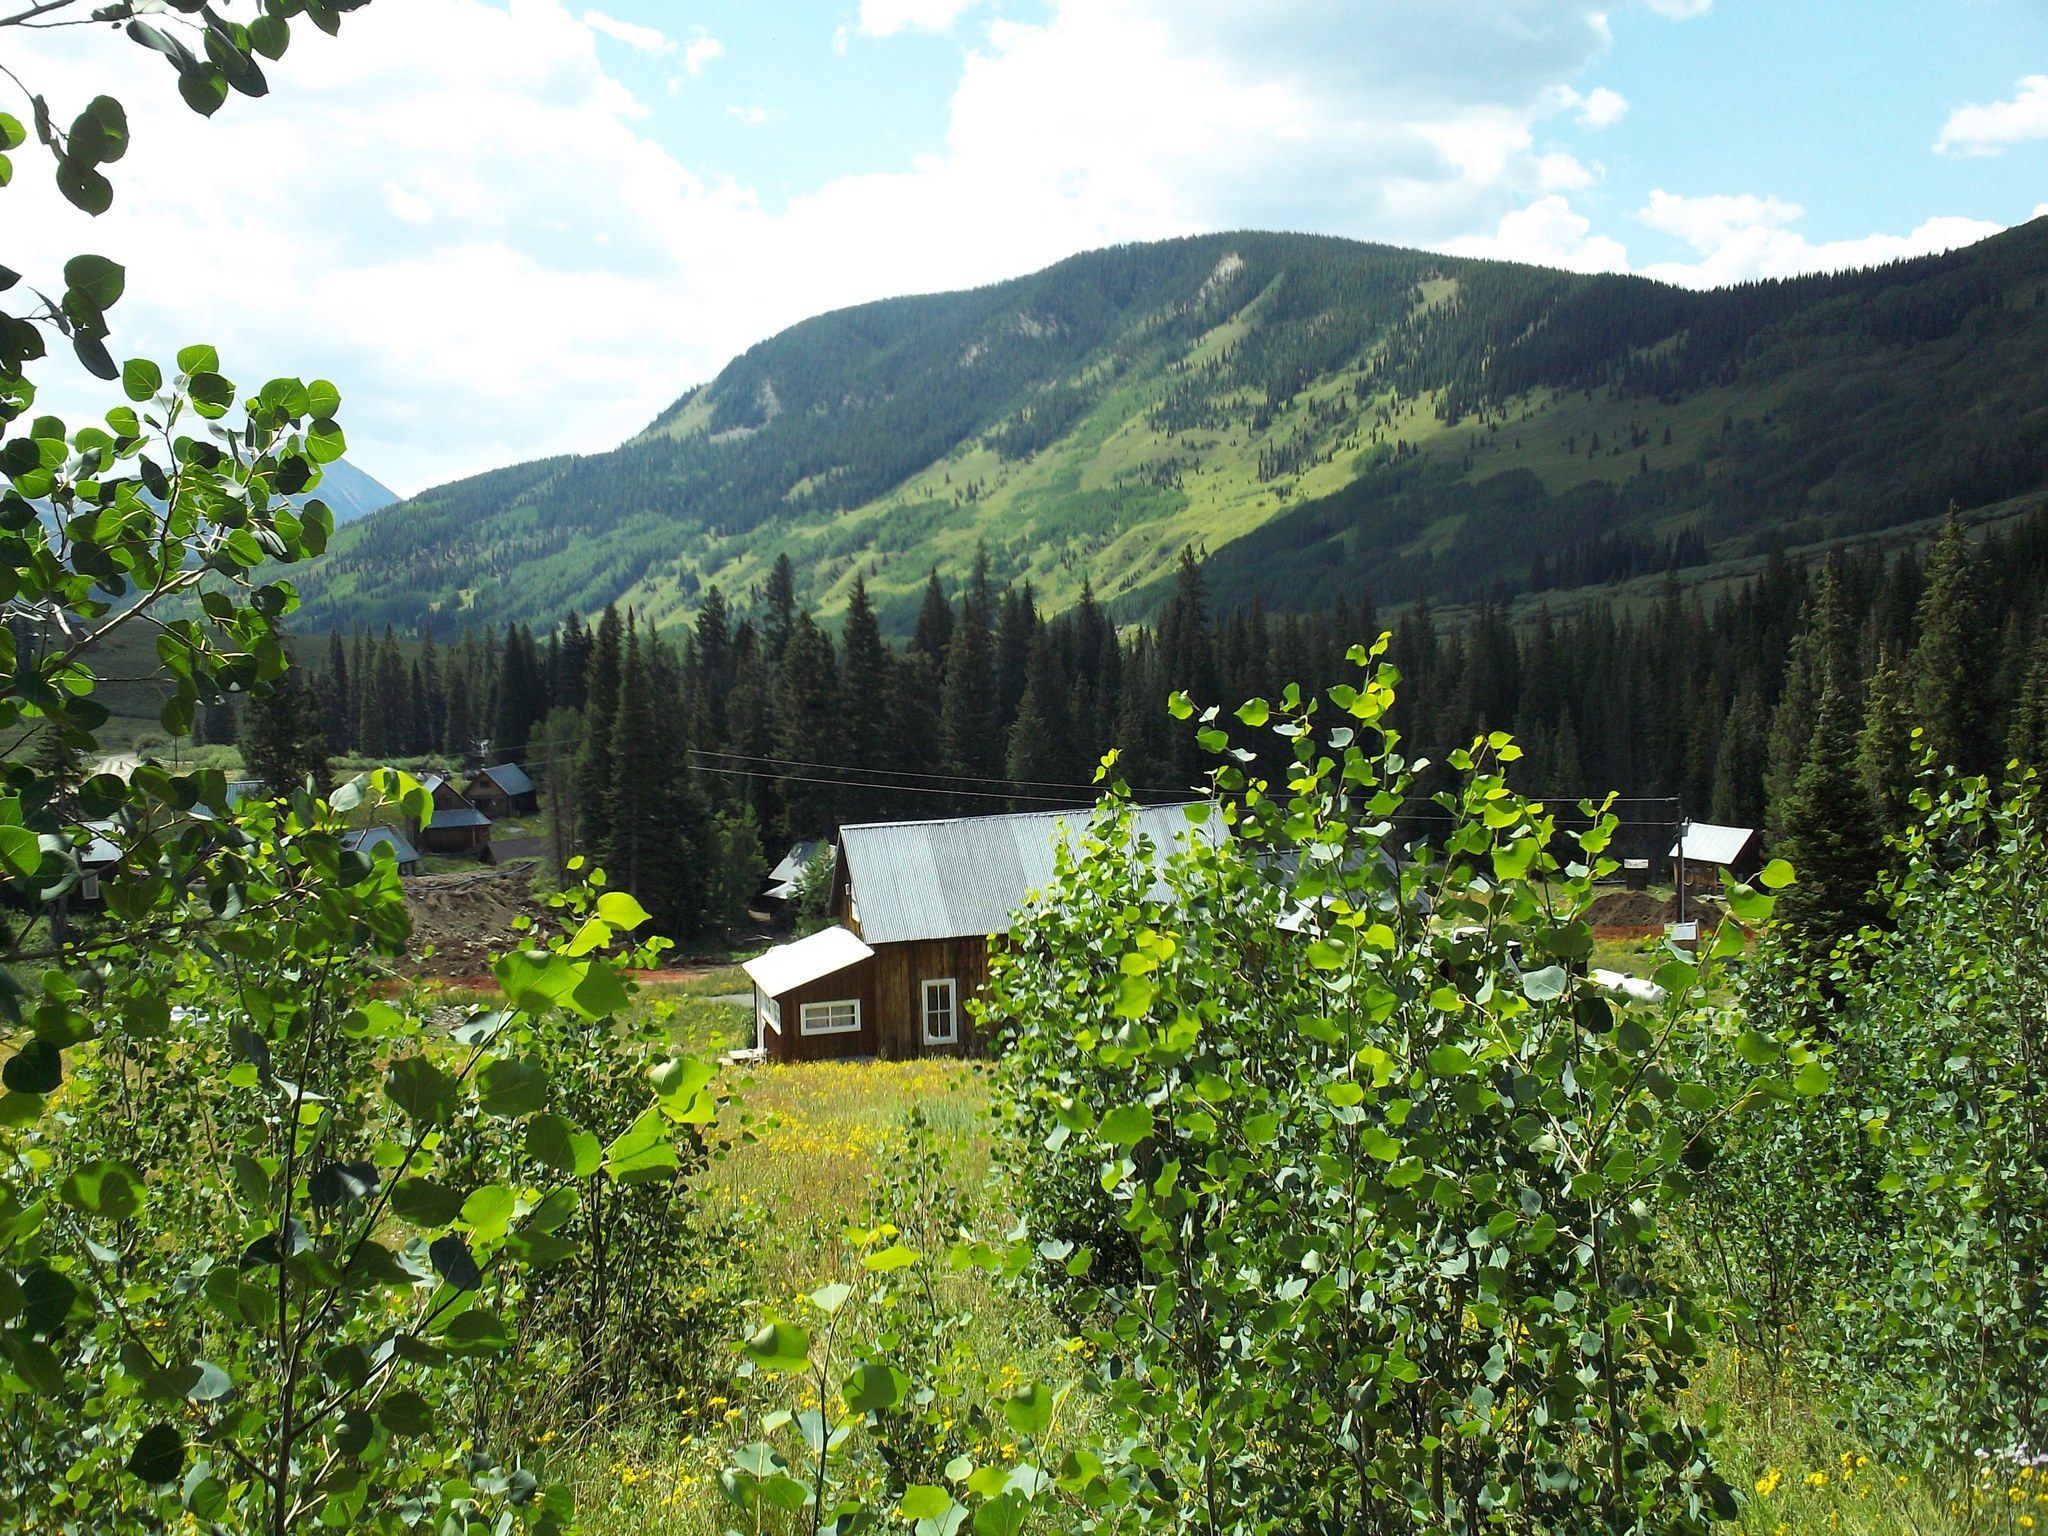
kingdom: Plantae
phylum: Tracheophyta
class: Magnoliopsida
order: Malpighiales
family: Salicaceae
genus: Populus
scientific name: Populus tremuloides
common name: Quaking aspen
